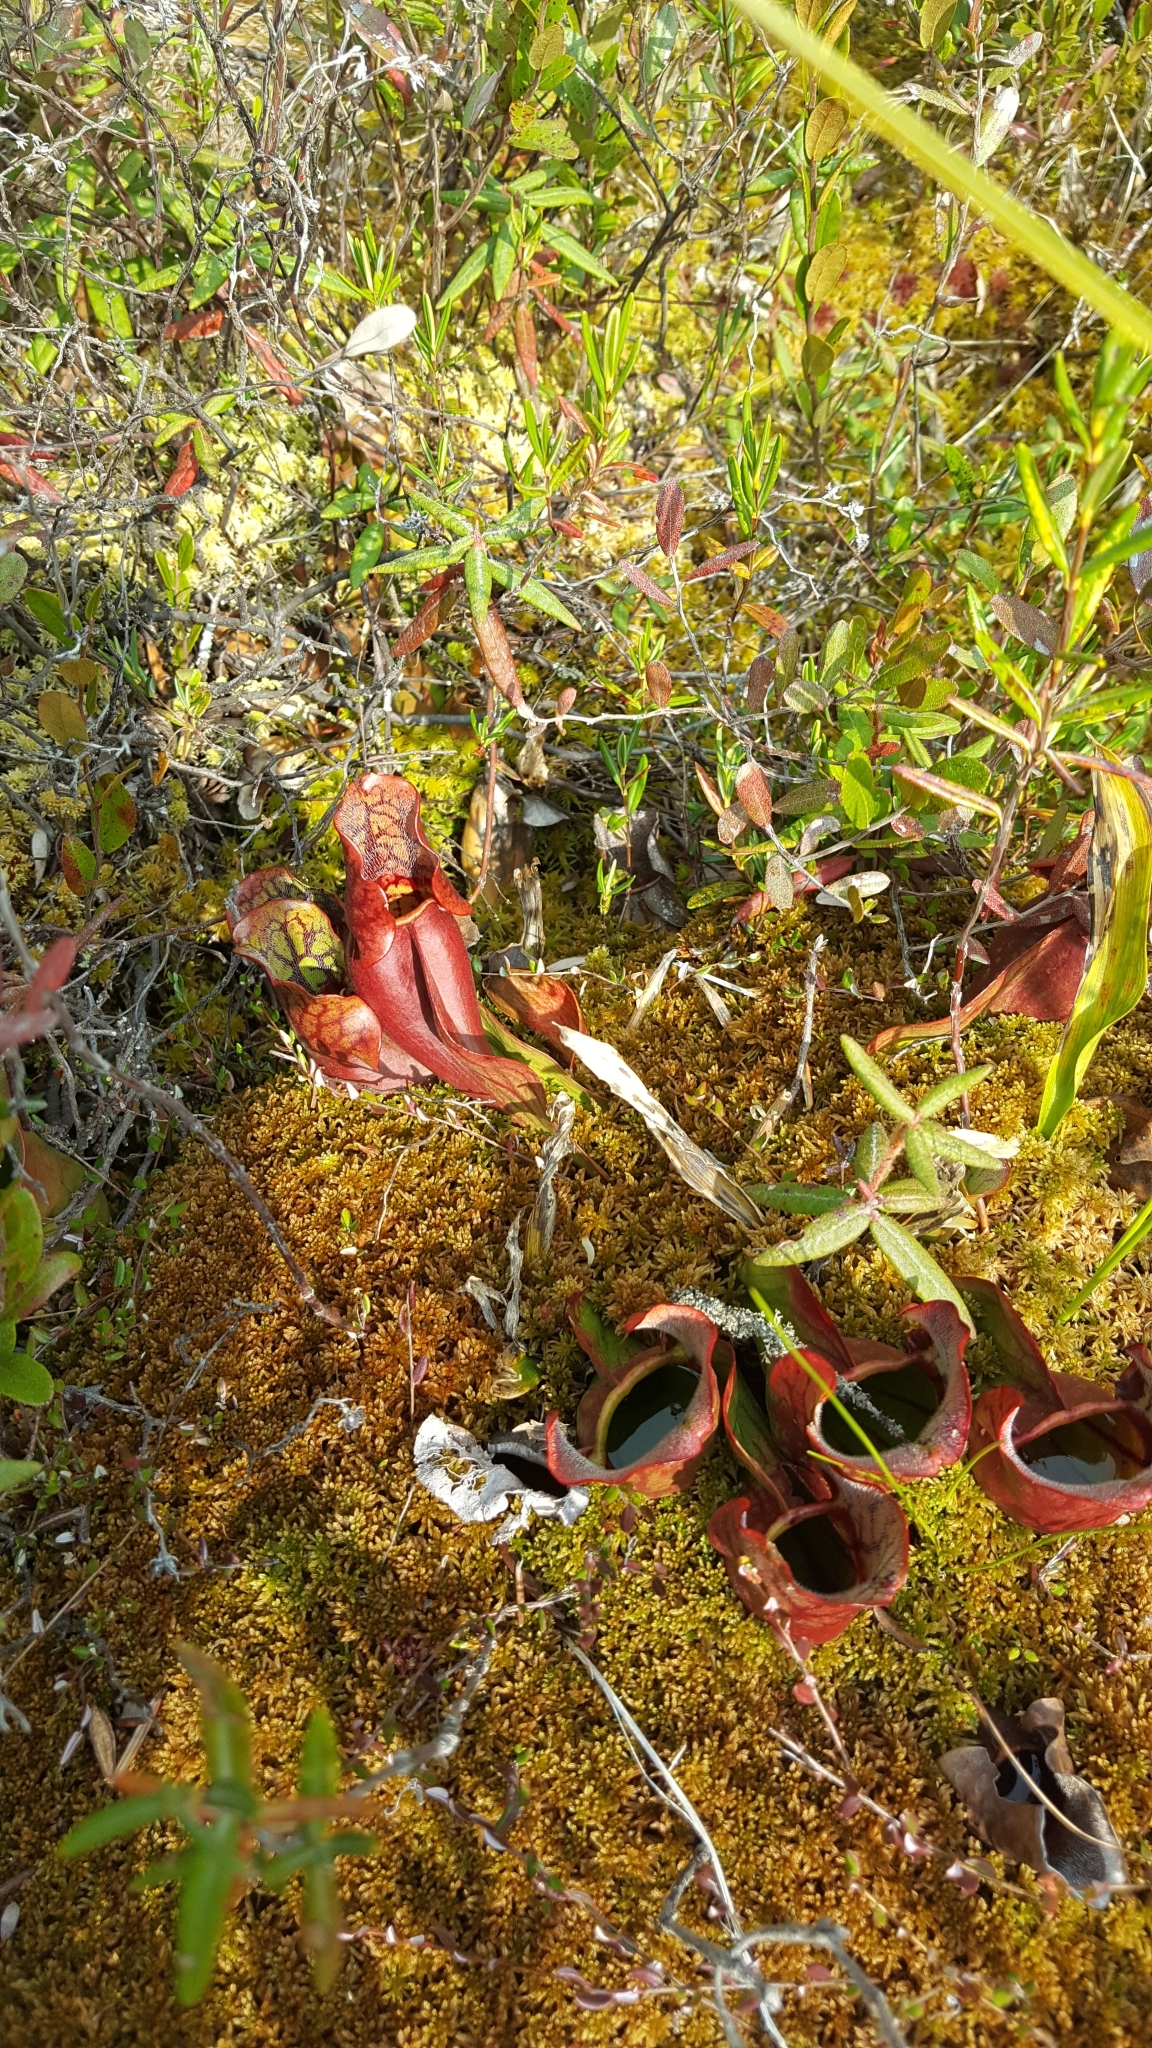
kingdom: Plantae
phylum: Tracheophyta
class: Magnoliopsida
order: Ericales
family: Sarraceniaceae
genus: Sarracenia
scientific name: Sarracenia purpurea
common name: Pitcherplant
